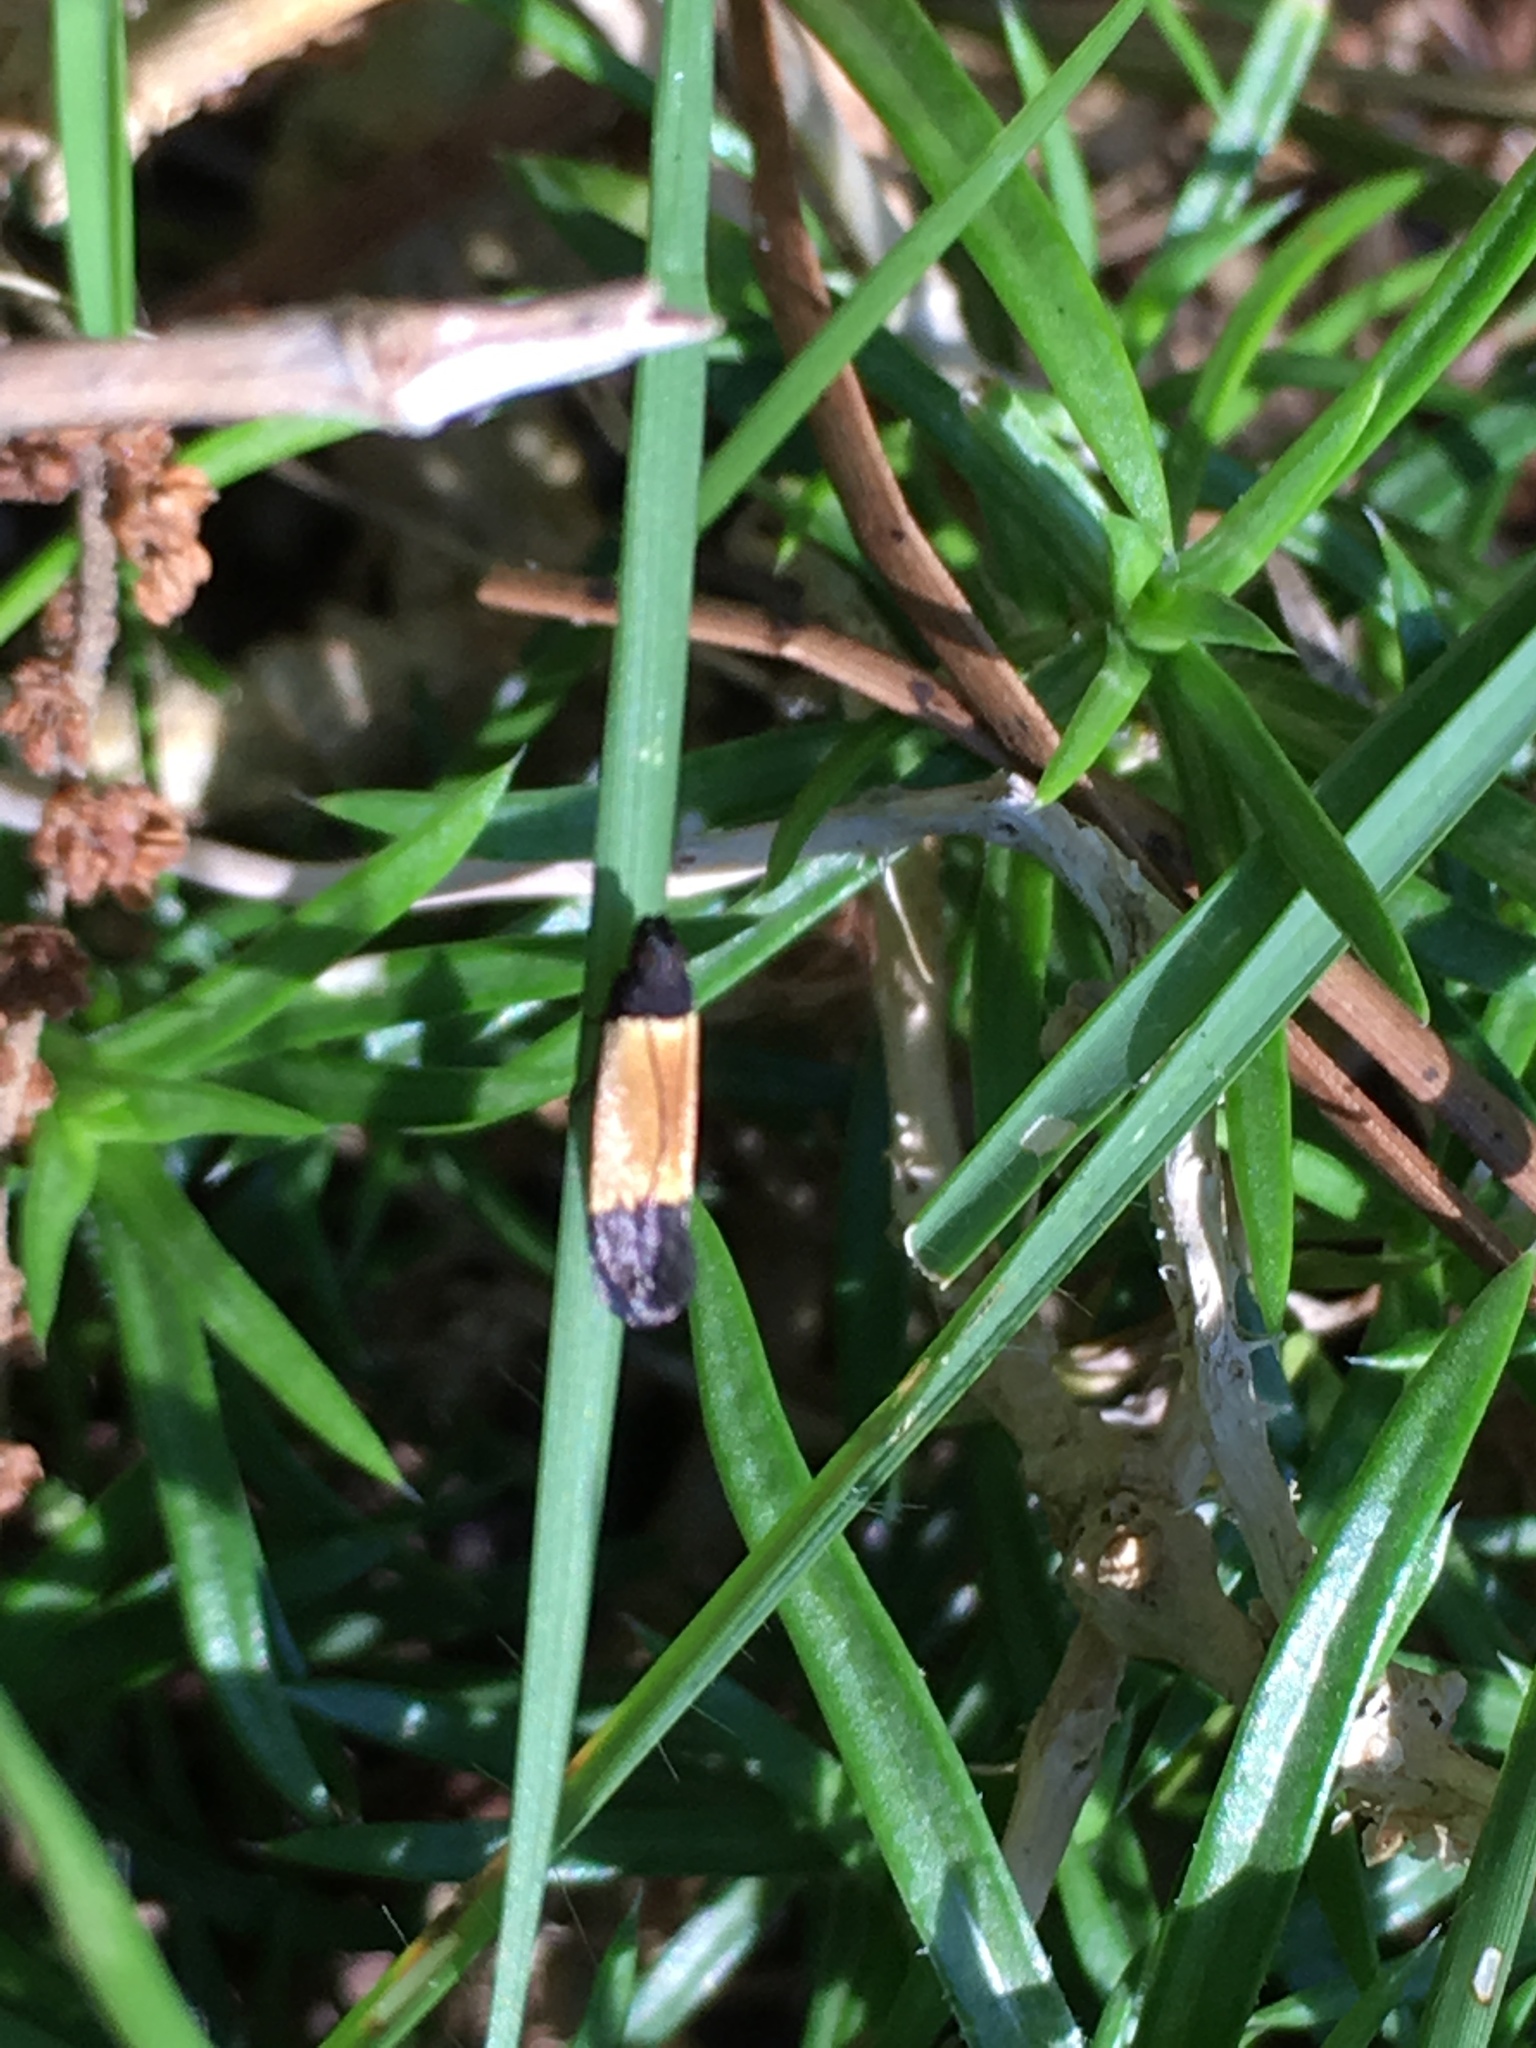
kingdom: Animalia
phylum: Arthropoda
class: Insecta
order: Lepidoptera
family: Gelechiidae
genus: Anacampsis
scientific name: Anacampsis coverdalella
